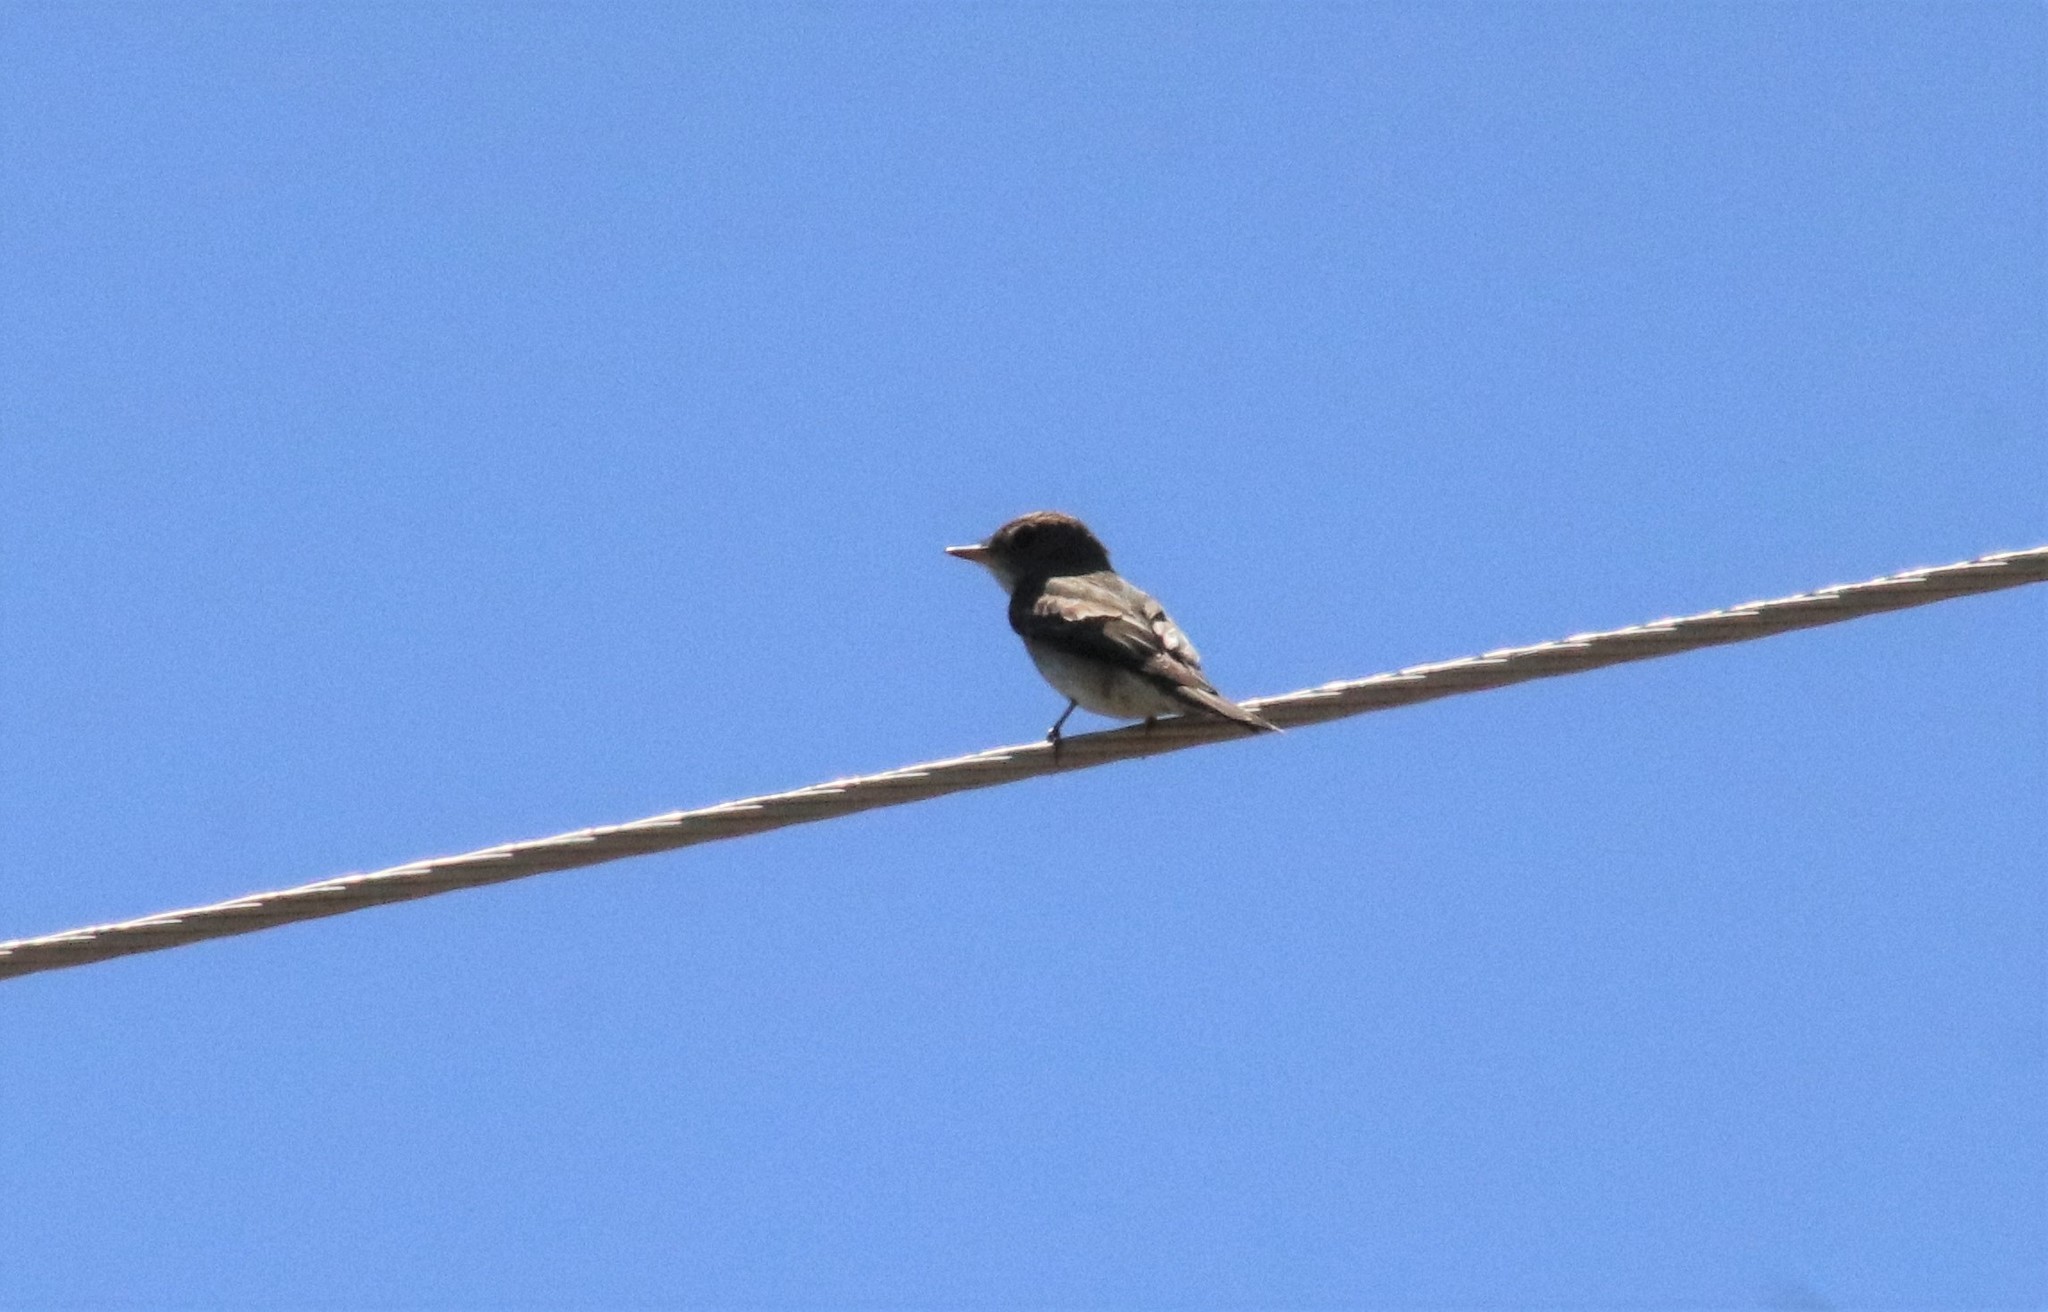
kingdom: Animalia
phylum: Chordata
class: Aves
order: Passeriformes
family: Tyrannidae
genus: Contopus
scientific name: Contopus sordidulus
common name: Western wood-pewee
